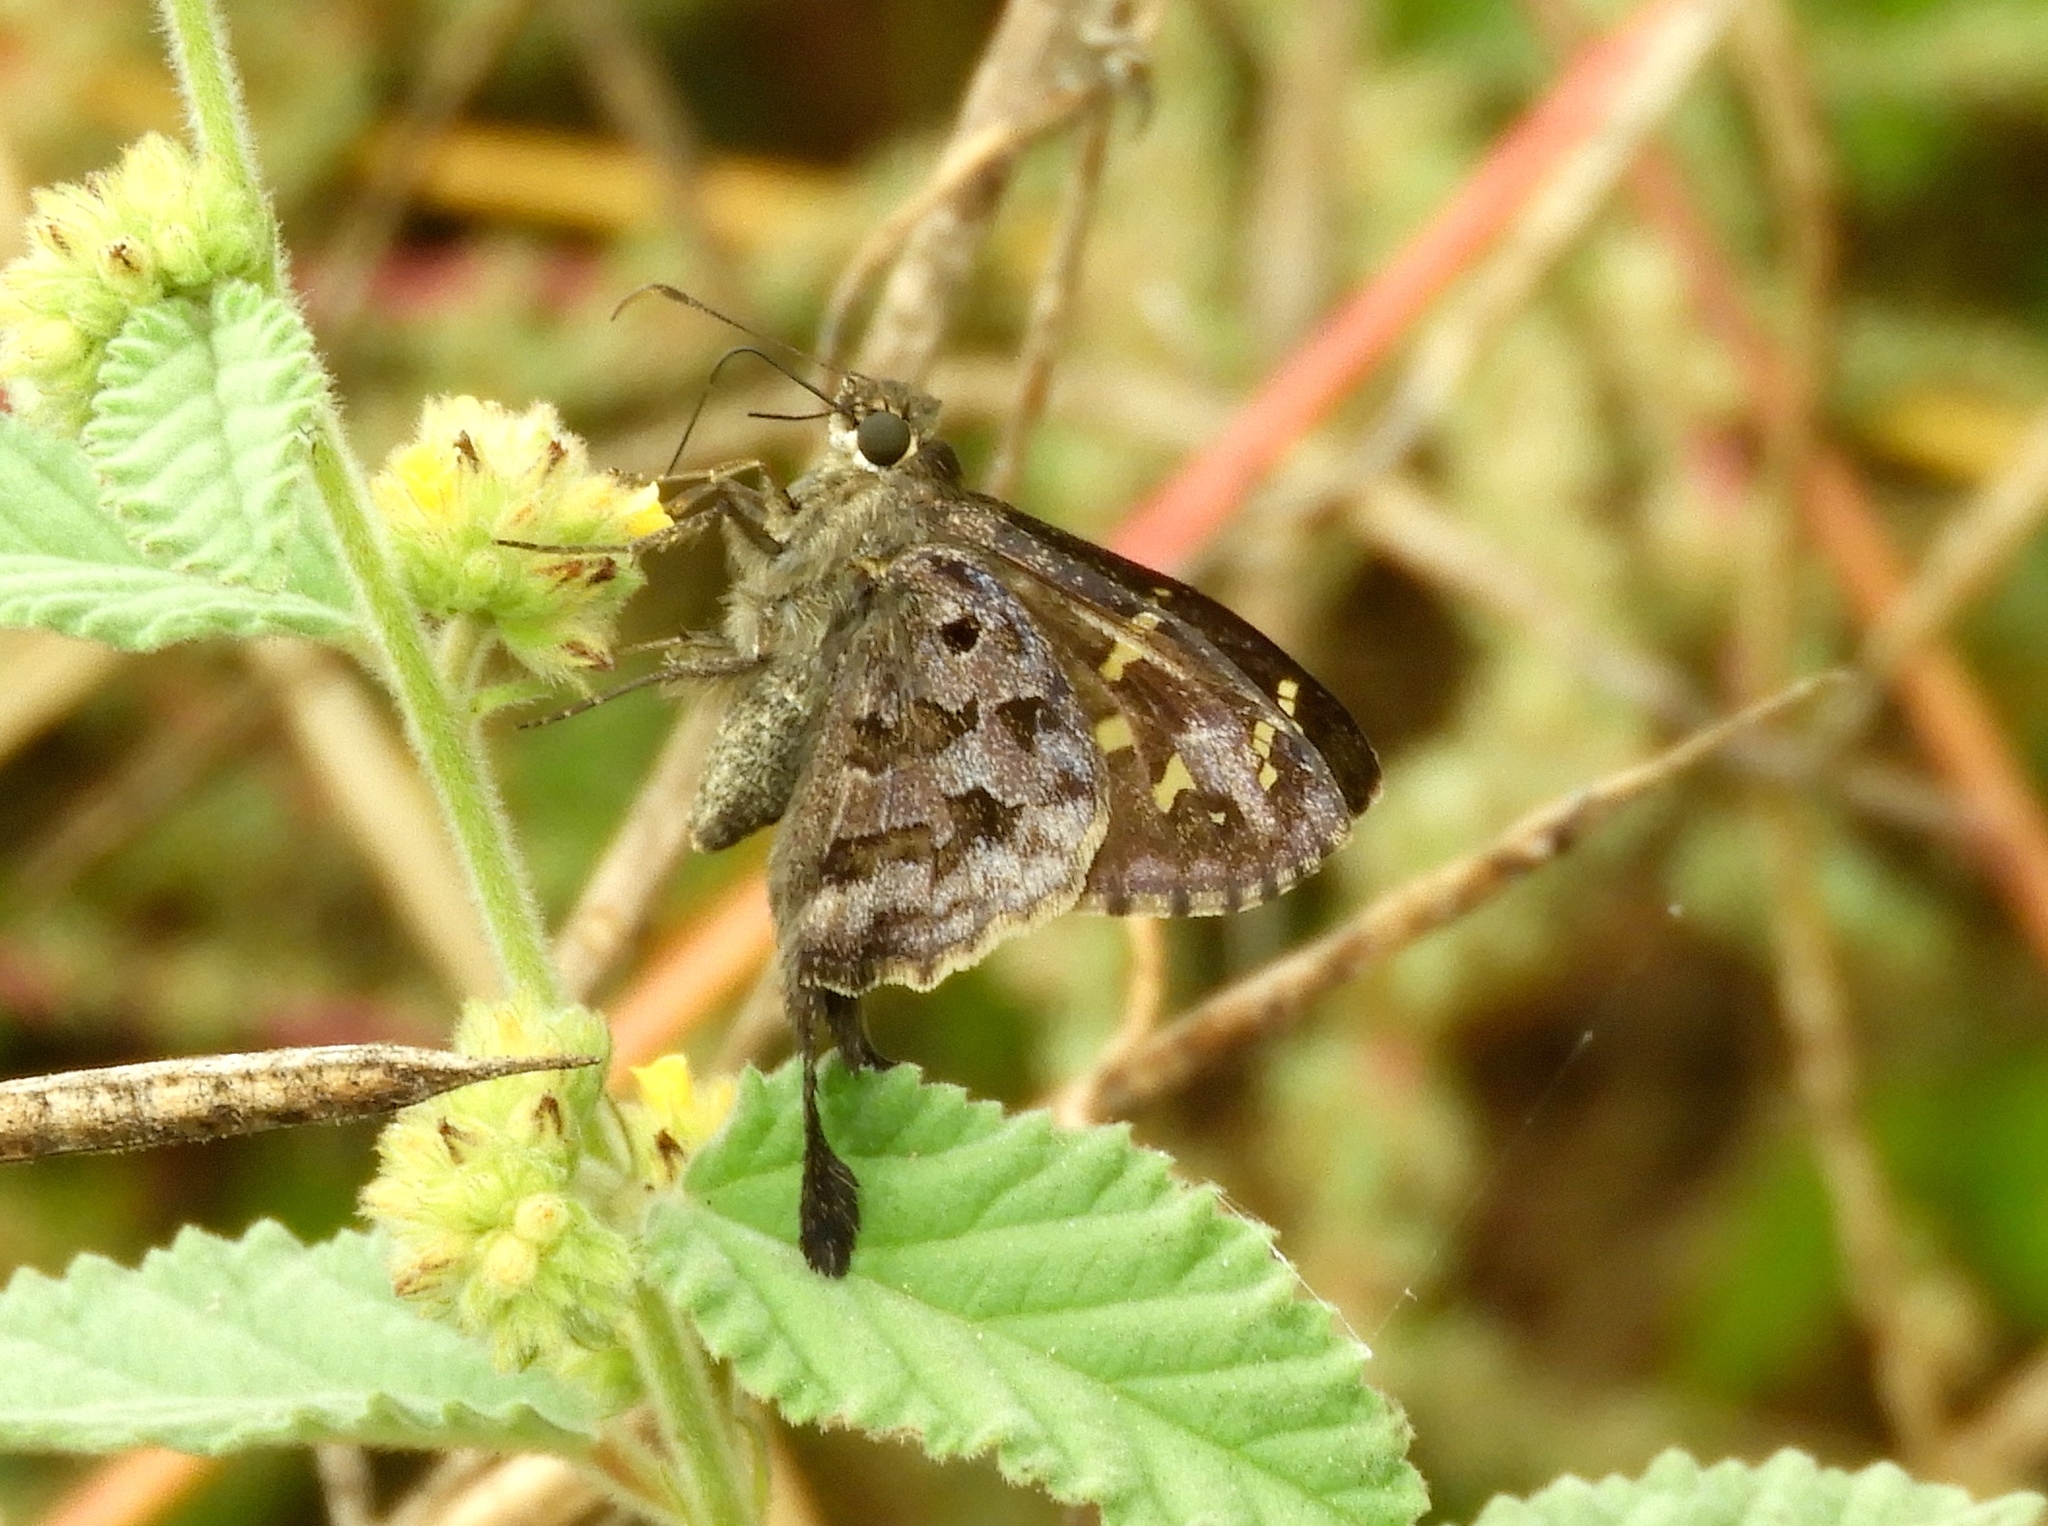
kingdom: Animalia
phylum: Arthropoda
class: Insecta
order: Lepidoptera
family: Hesperiidae
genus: Thorybes
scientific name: Thorybes
